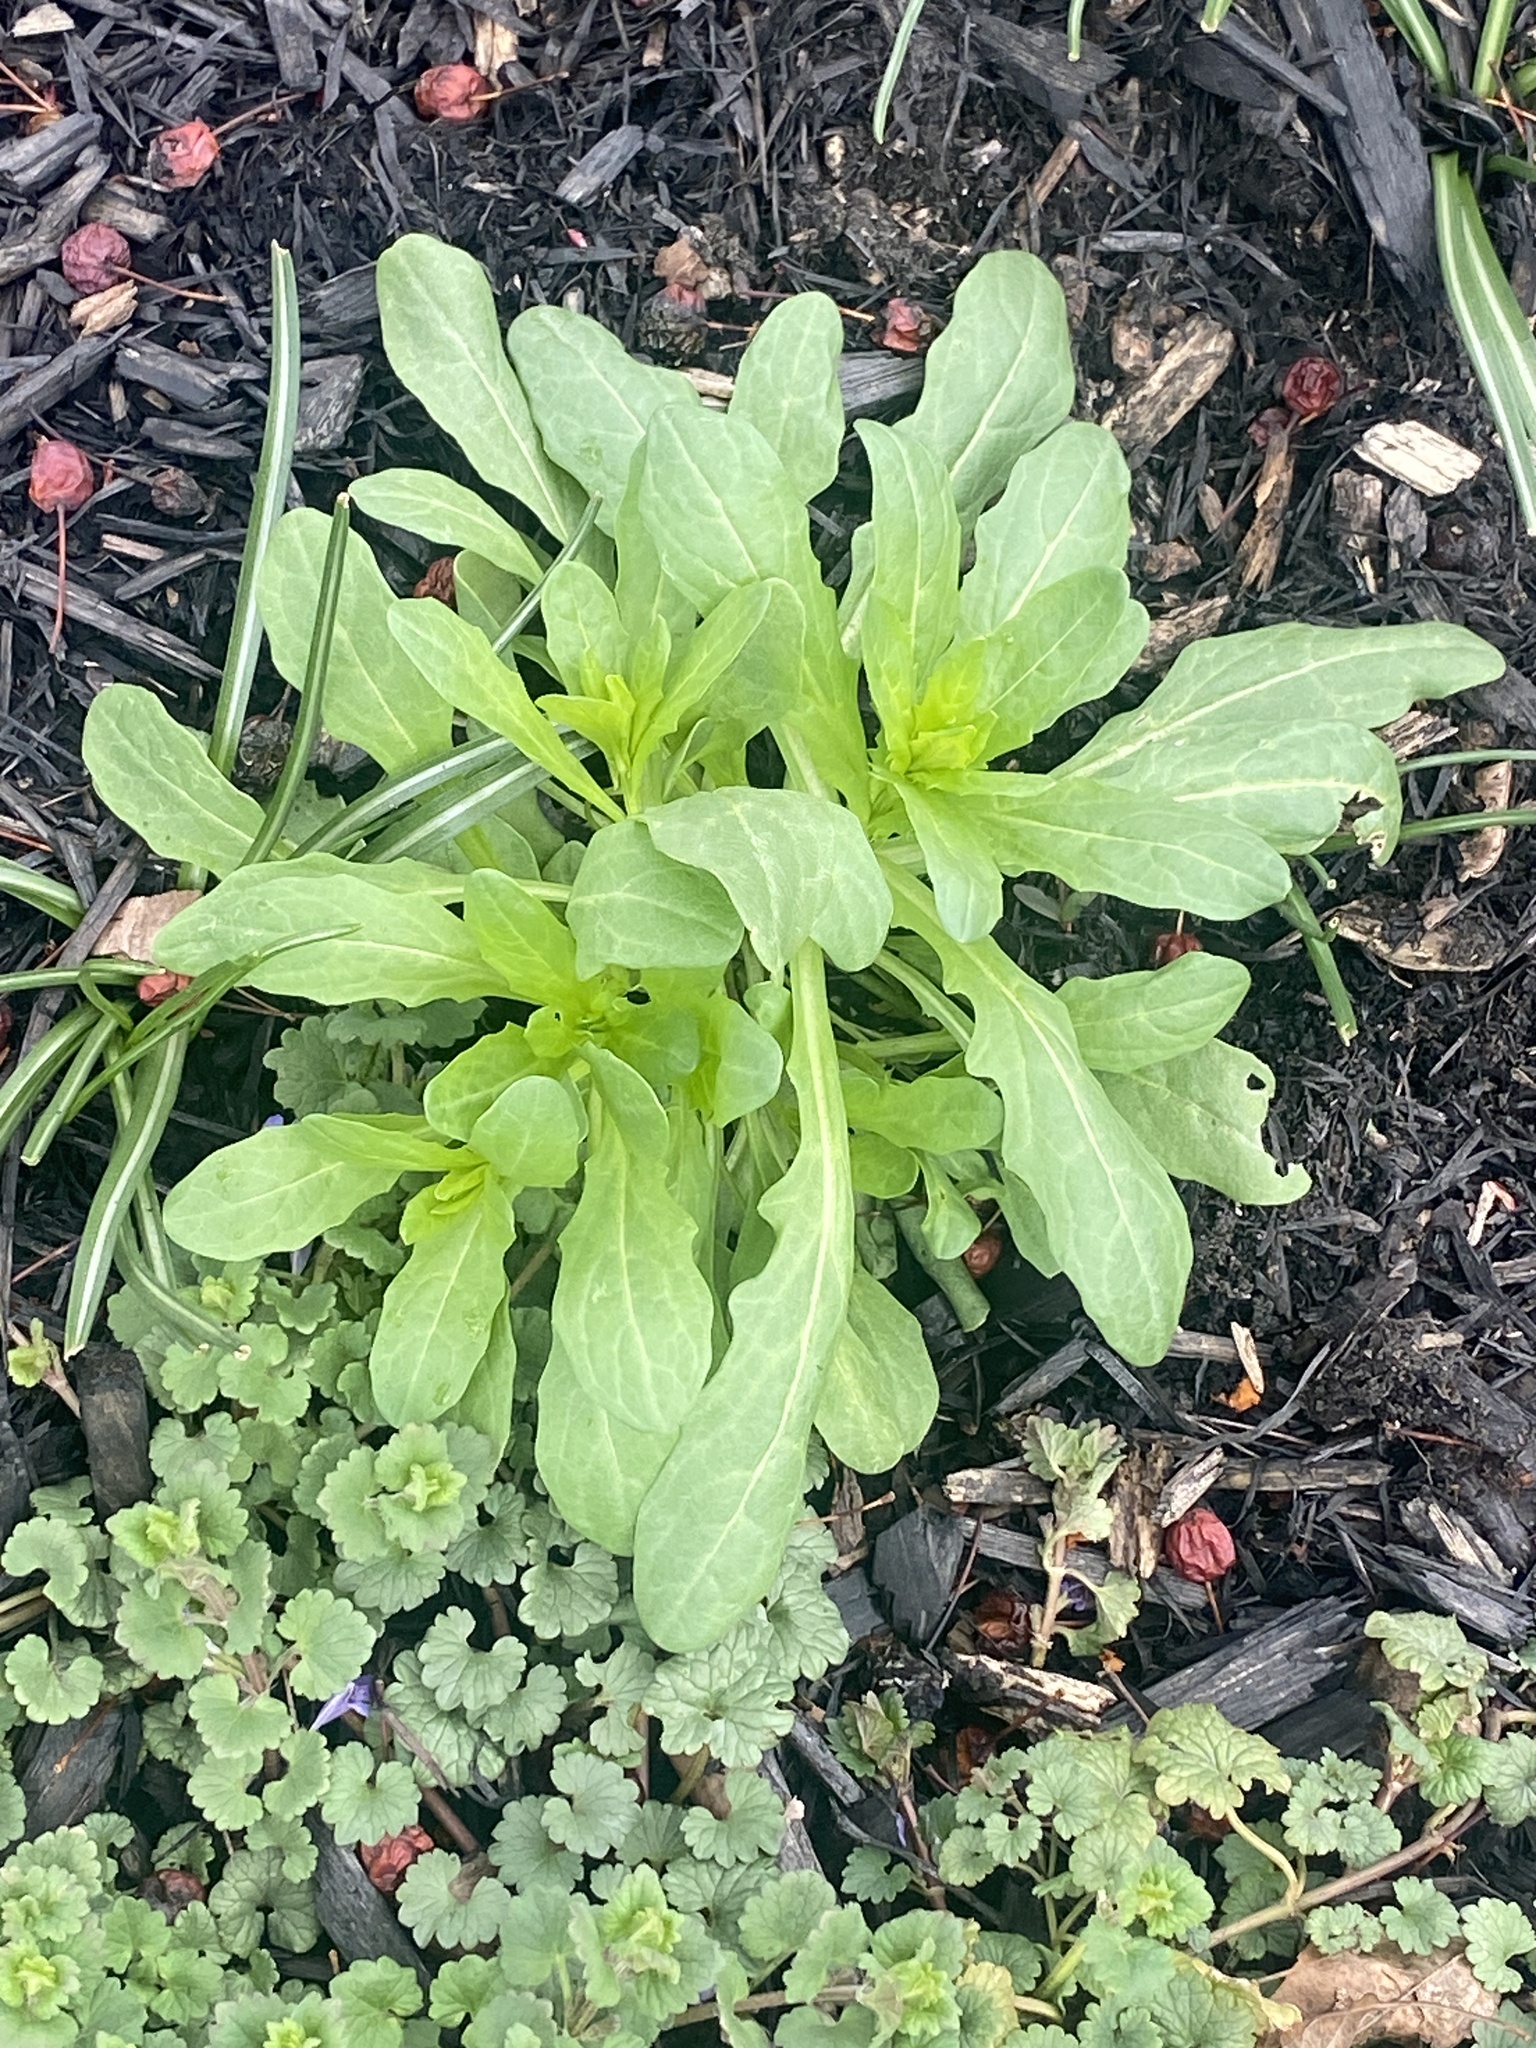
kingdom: Plantae
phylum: Tracheophyta
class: Magnoliopsida
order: Brassicales
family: Brassicaceae
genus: Thlaspi
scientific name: Thlaspi arvense
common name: Field pennycress
